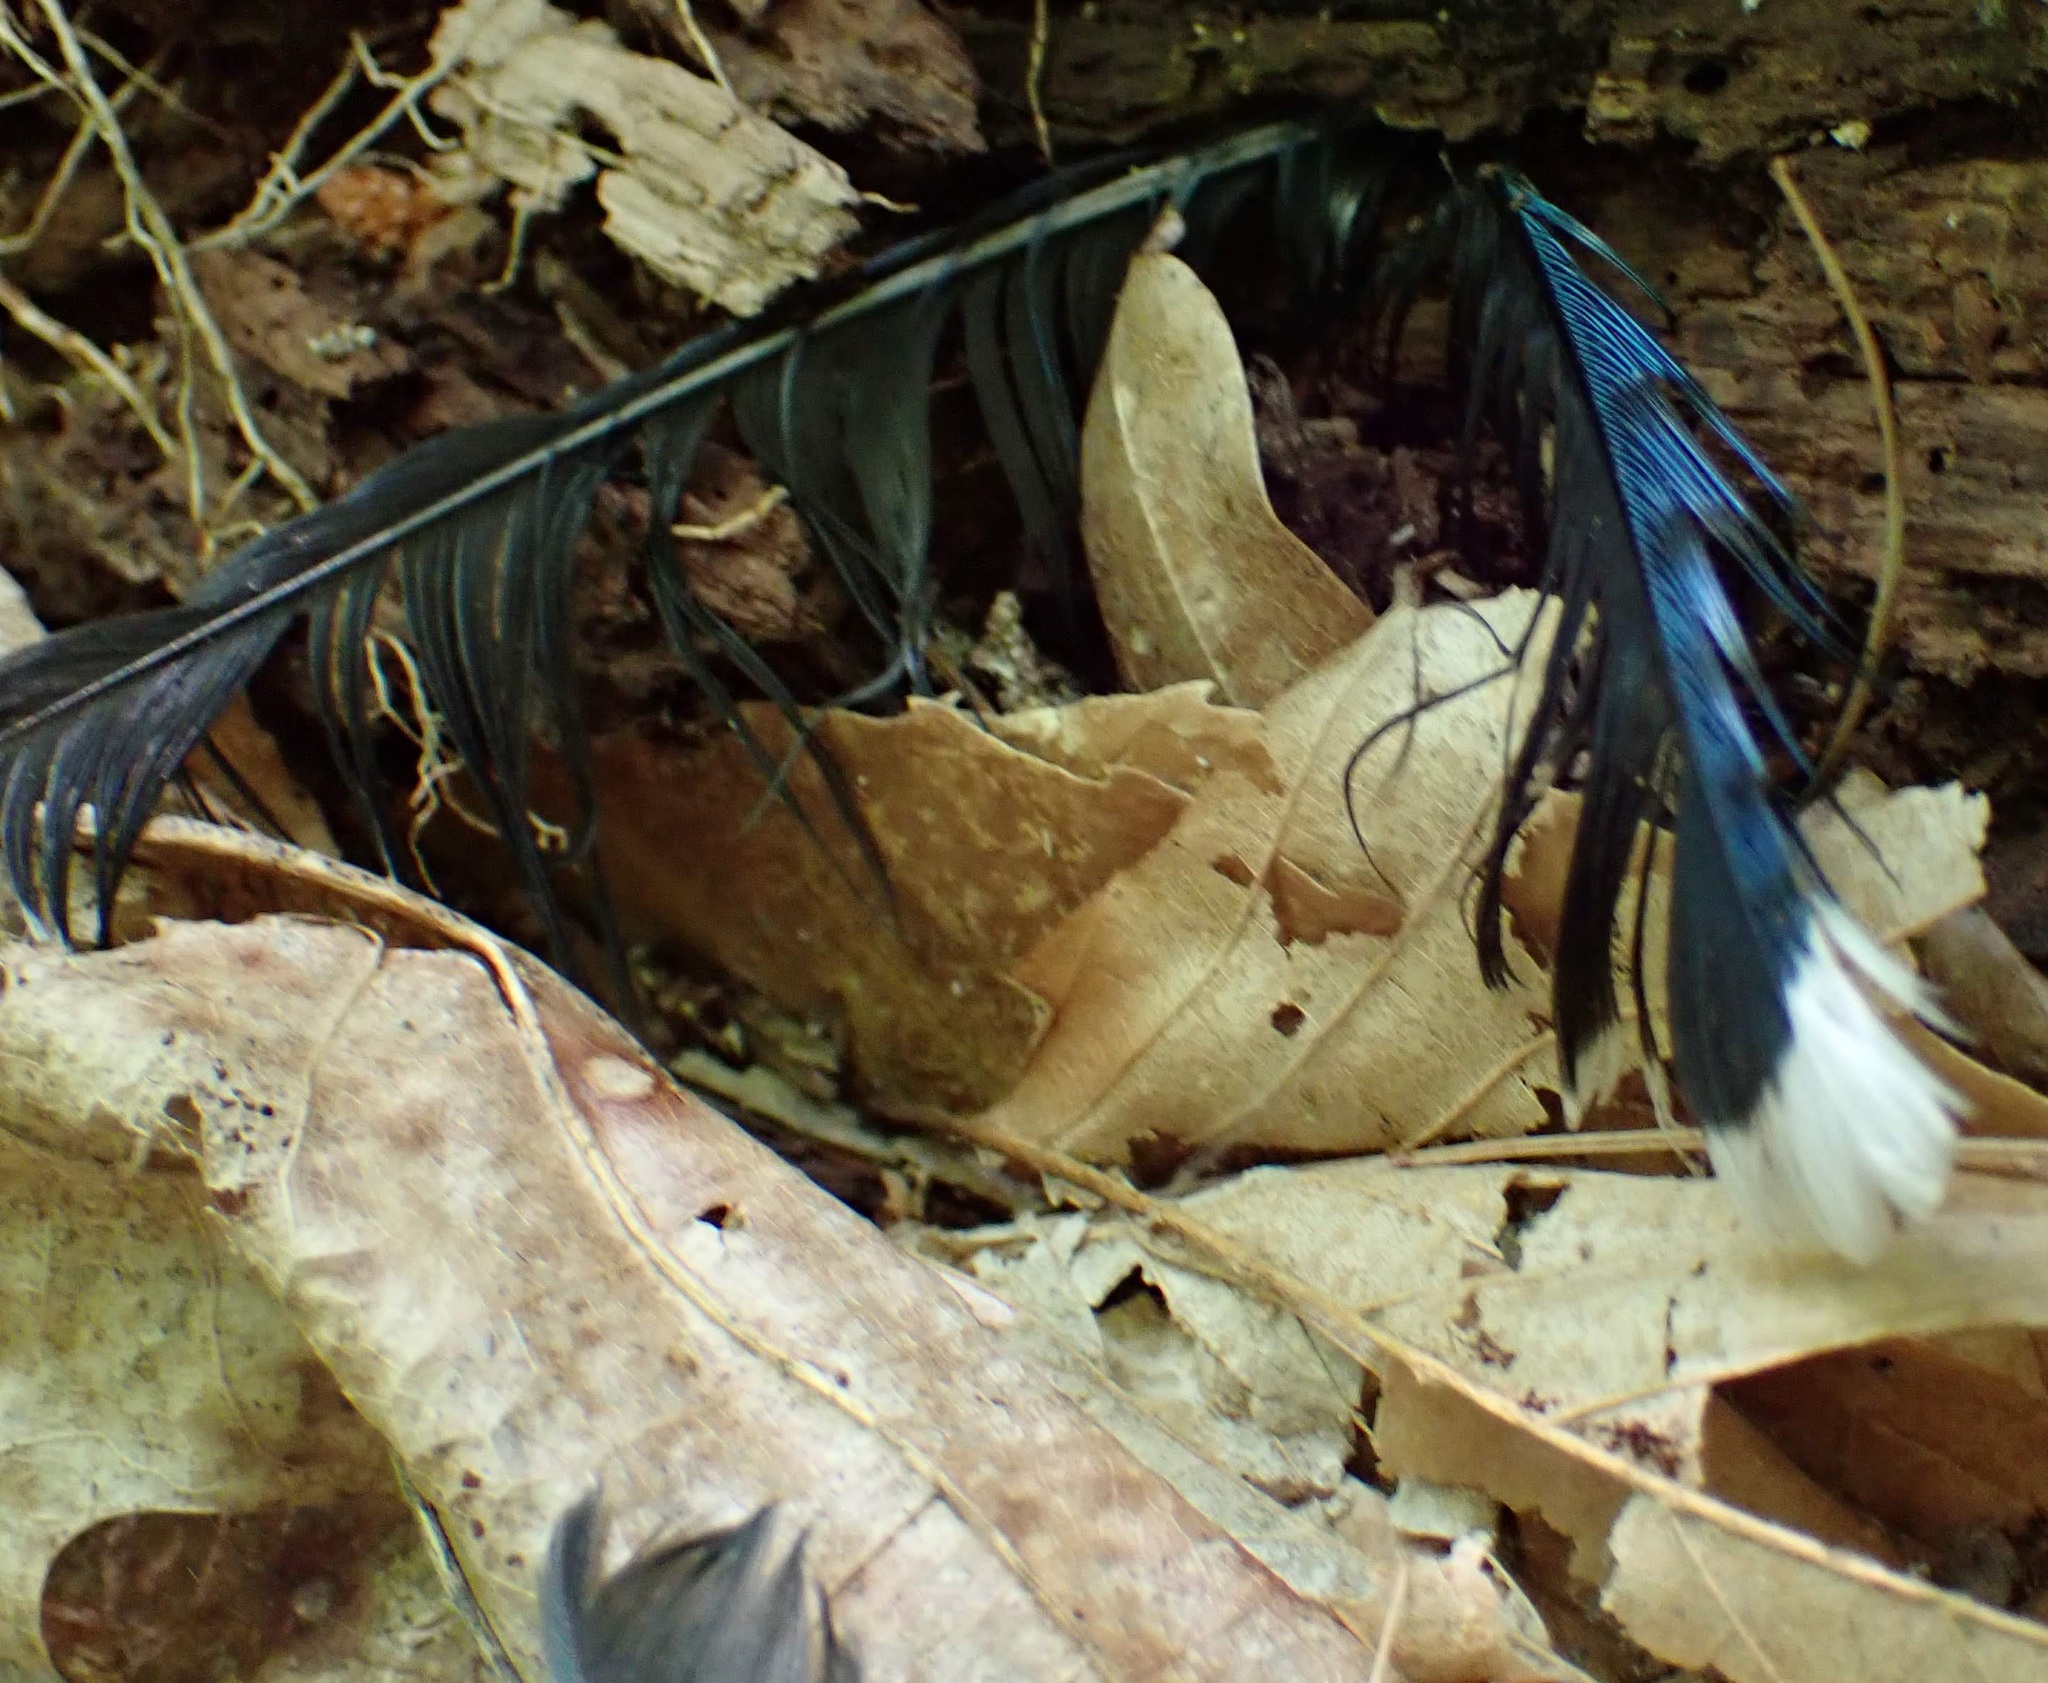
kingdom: Animalia
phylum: Chordata
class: Aves
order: Passeriformes
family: Corvidae
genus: Cyanocitta
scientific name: Cyanocitta cristata
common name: Blue jay
